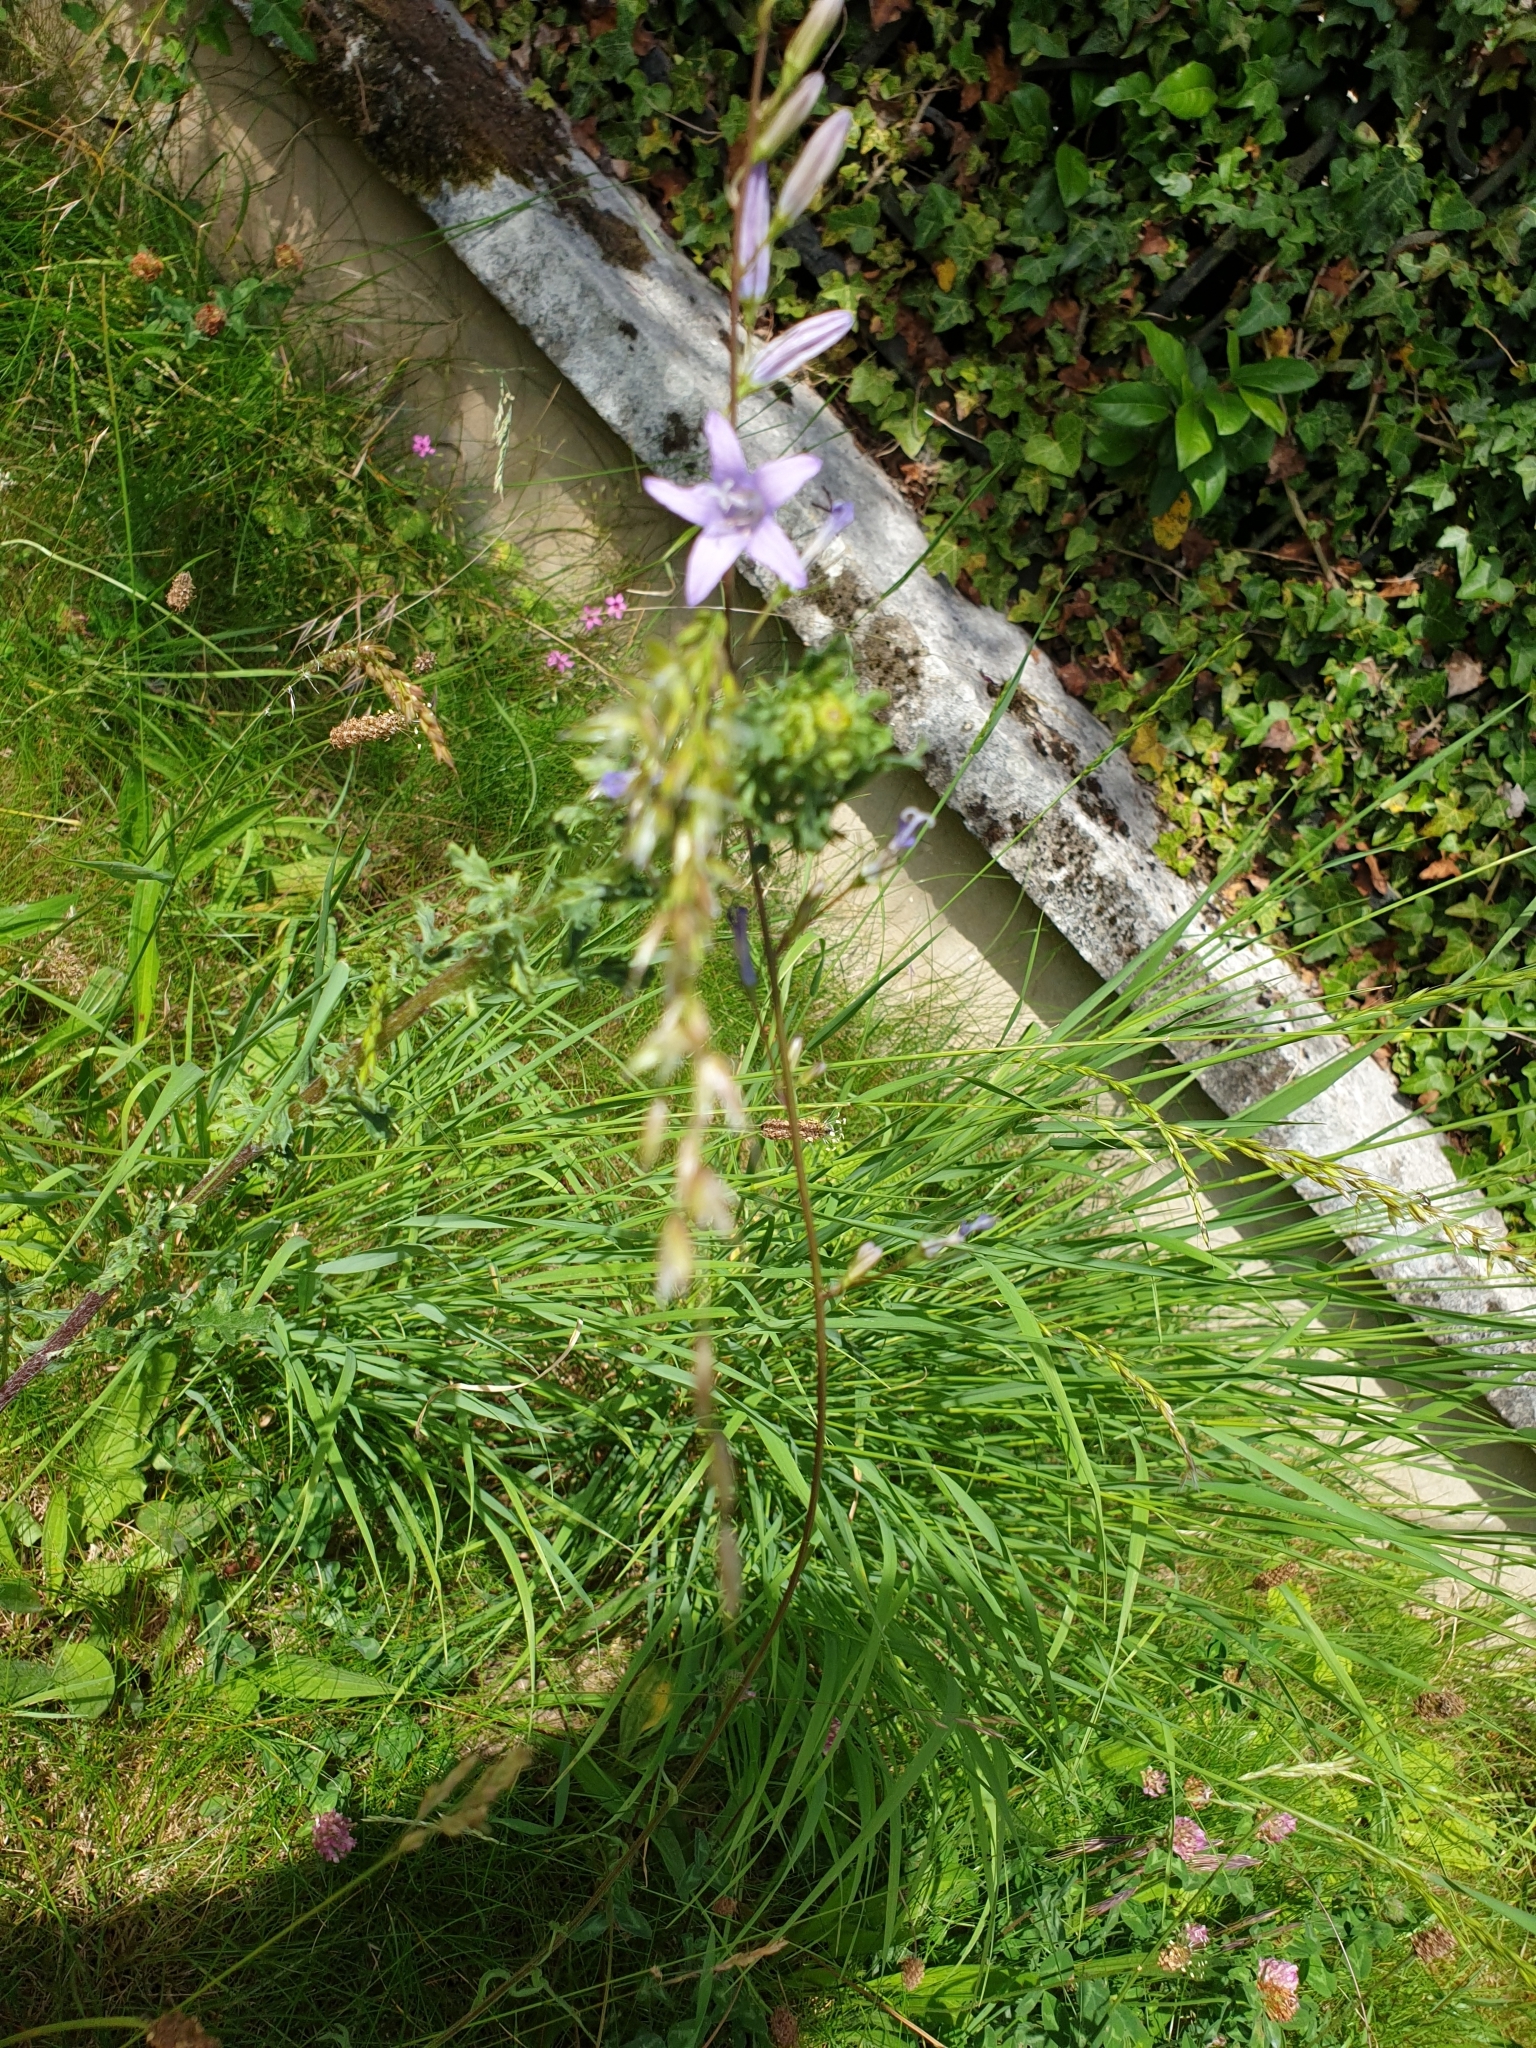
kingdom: Plantae
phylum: Tracheophyta
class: Magnoliopsida
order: Asterales
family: Campanulaceae
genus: Campanula
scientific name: Campanula rapunculus
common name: Rampion bellflower
